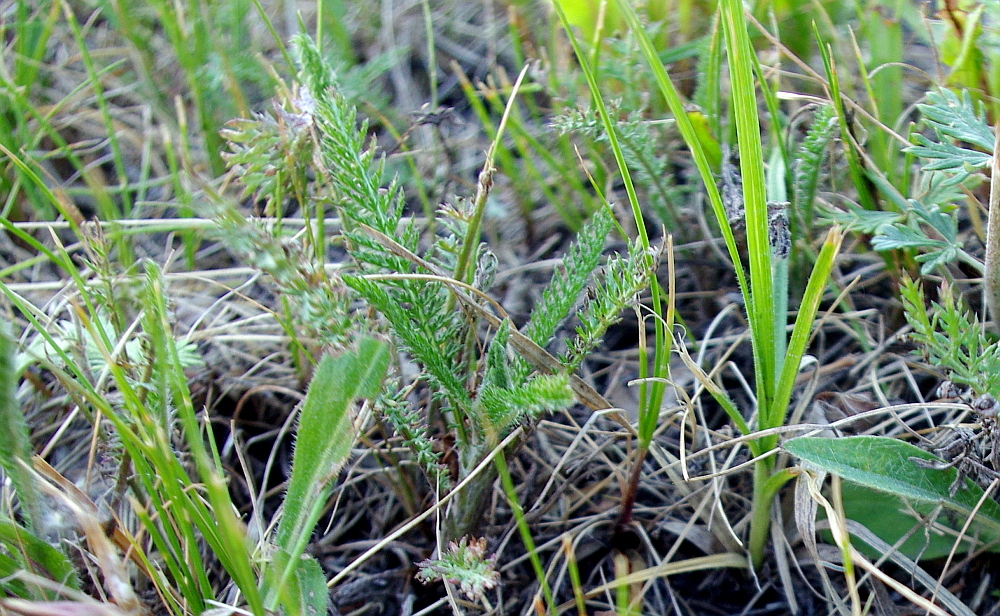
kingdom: Plantae
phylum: Tracheophyta
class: Magnoliopsida
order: Asterales
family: Asteraceae
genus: Achillea
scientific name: Achillea millefolium
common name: Yarrow
